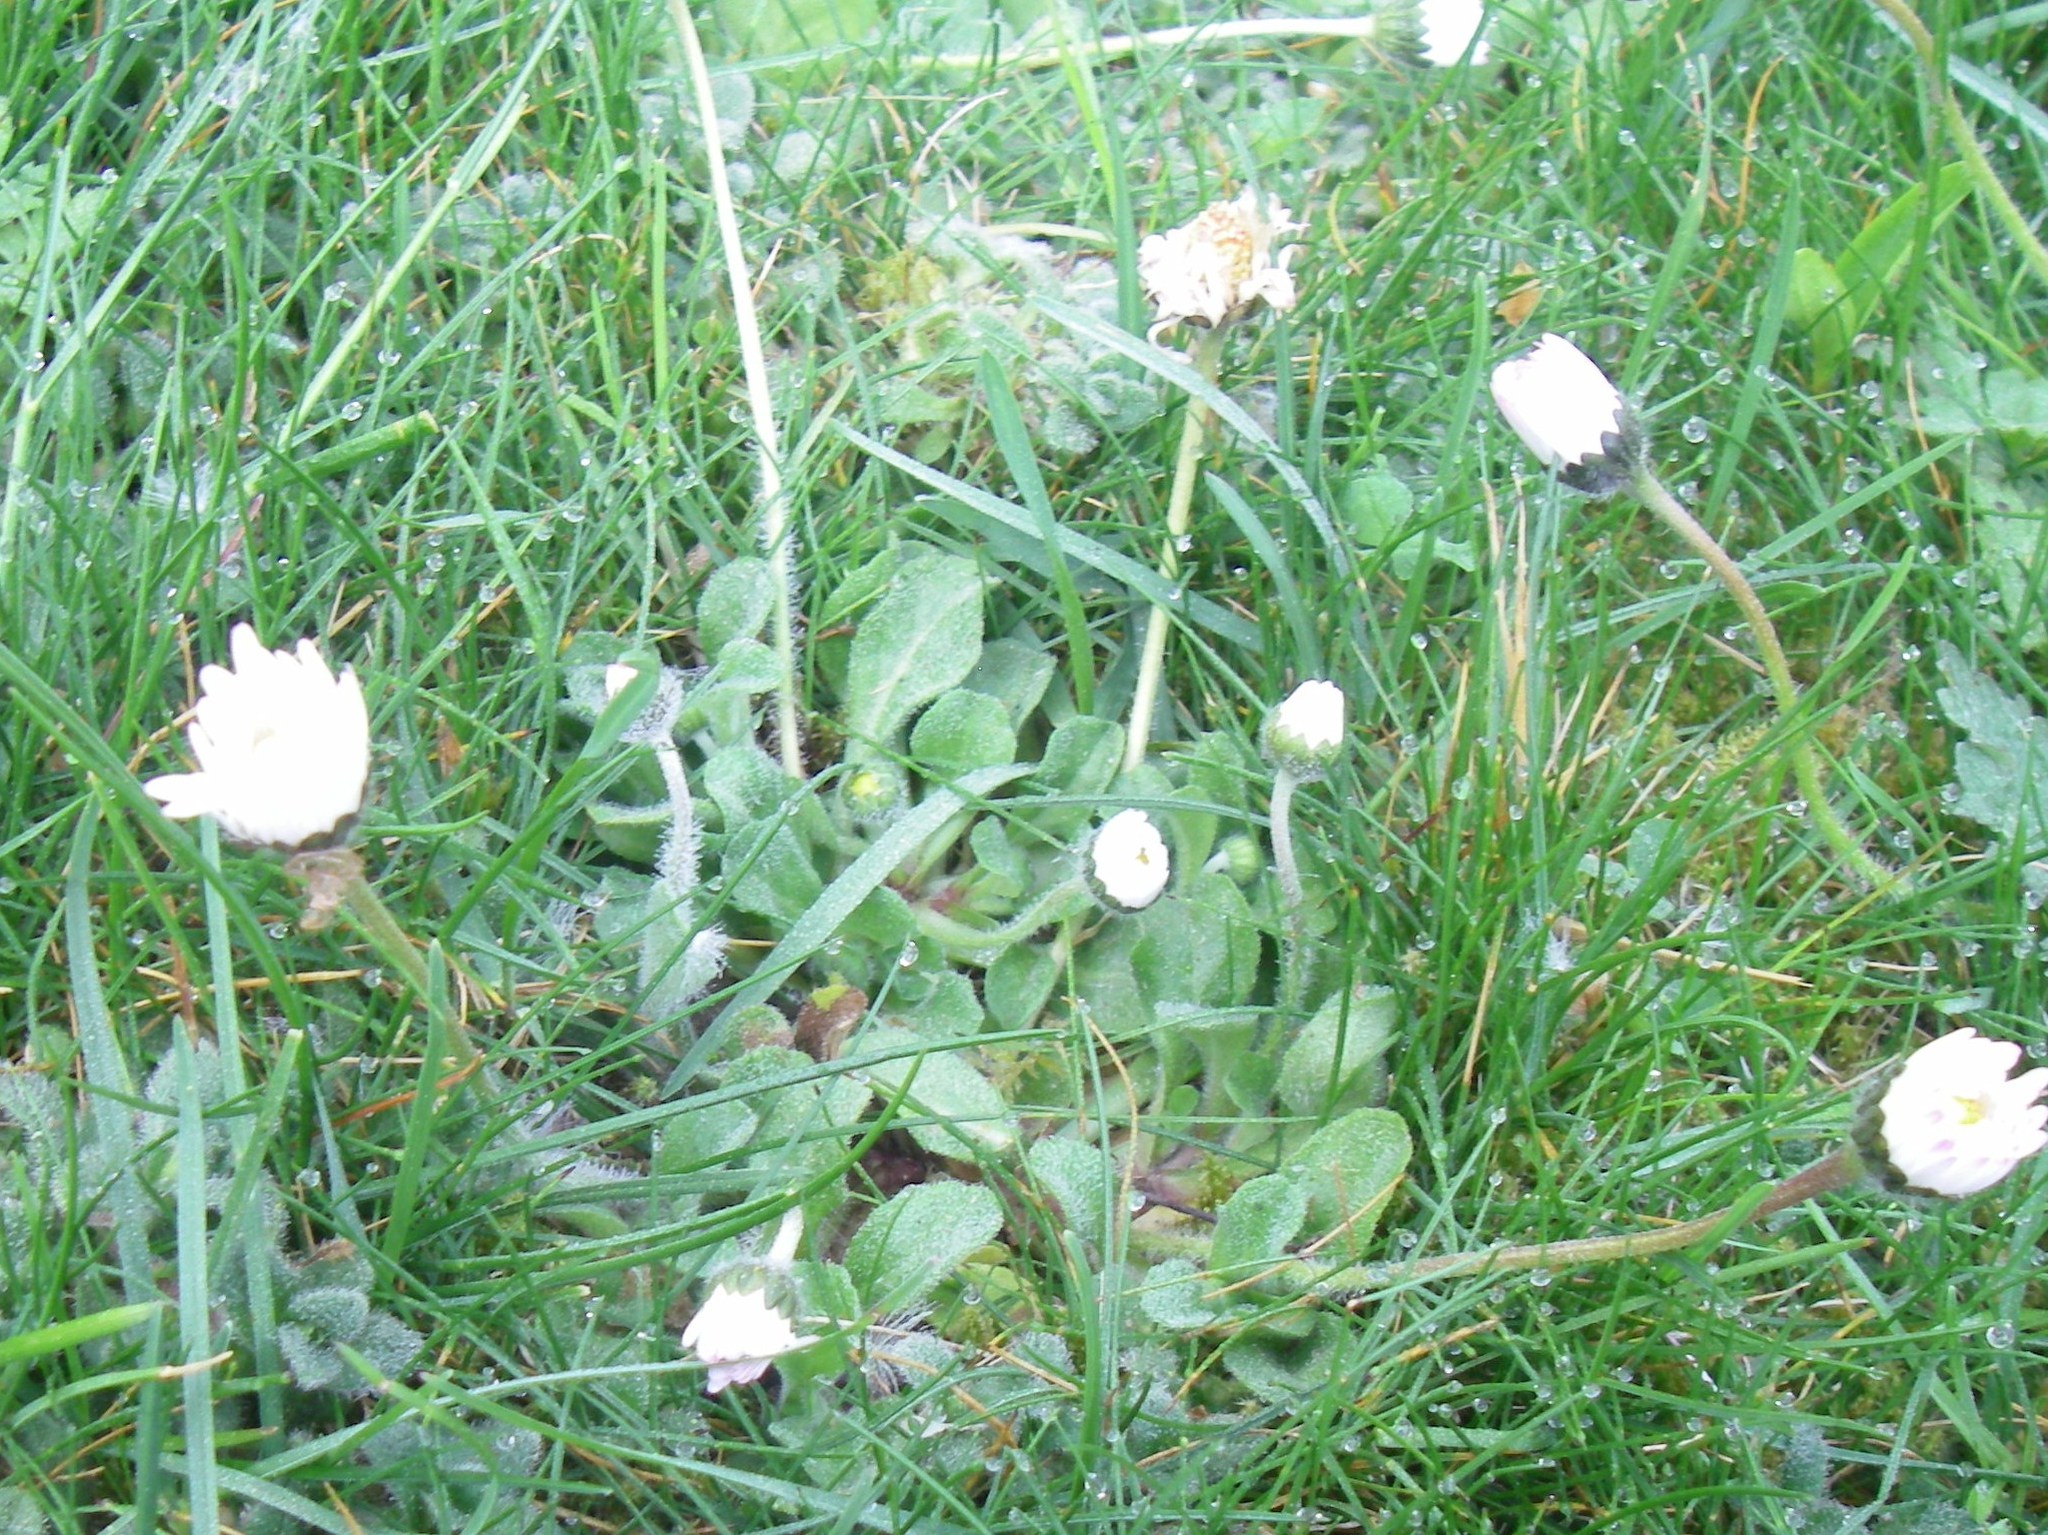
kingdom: Plantae
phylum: Tracheophyta
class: Magnoliopsida
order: Asterales
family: Asteraceae
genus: Bellis
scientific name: Bellis perennis
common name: Lawndaisy
